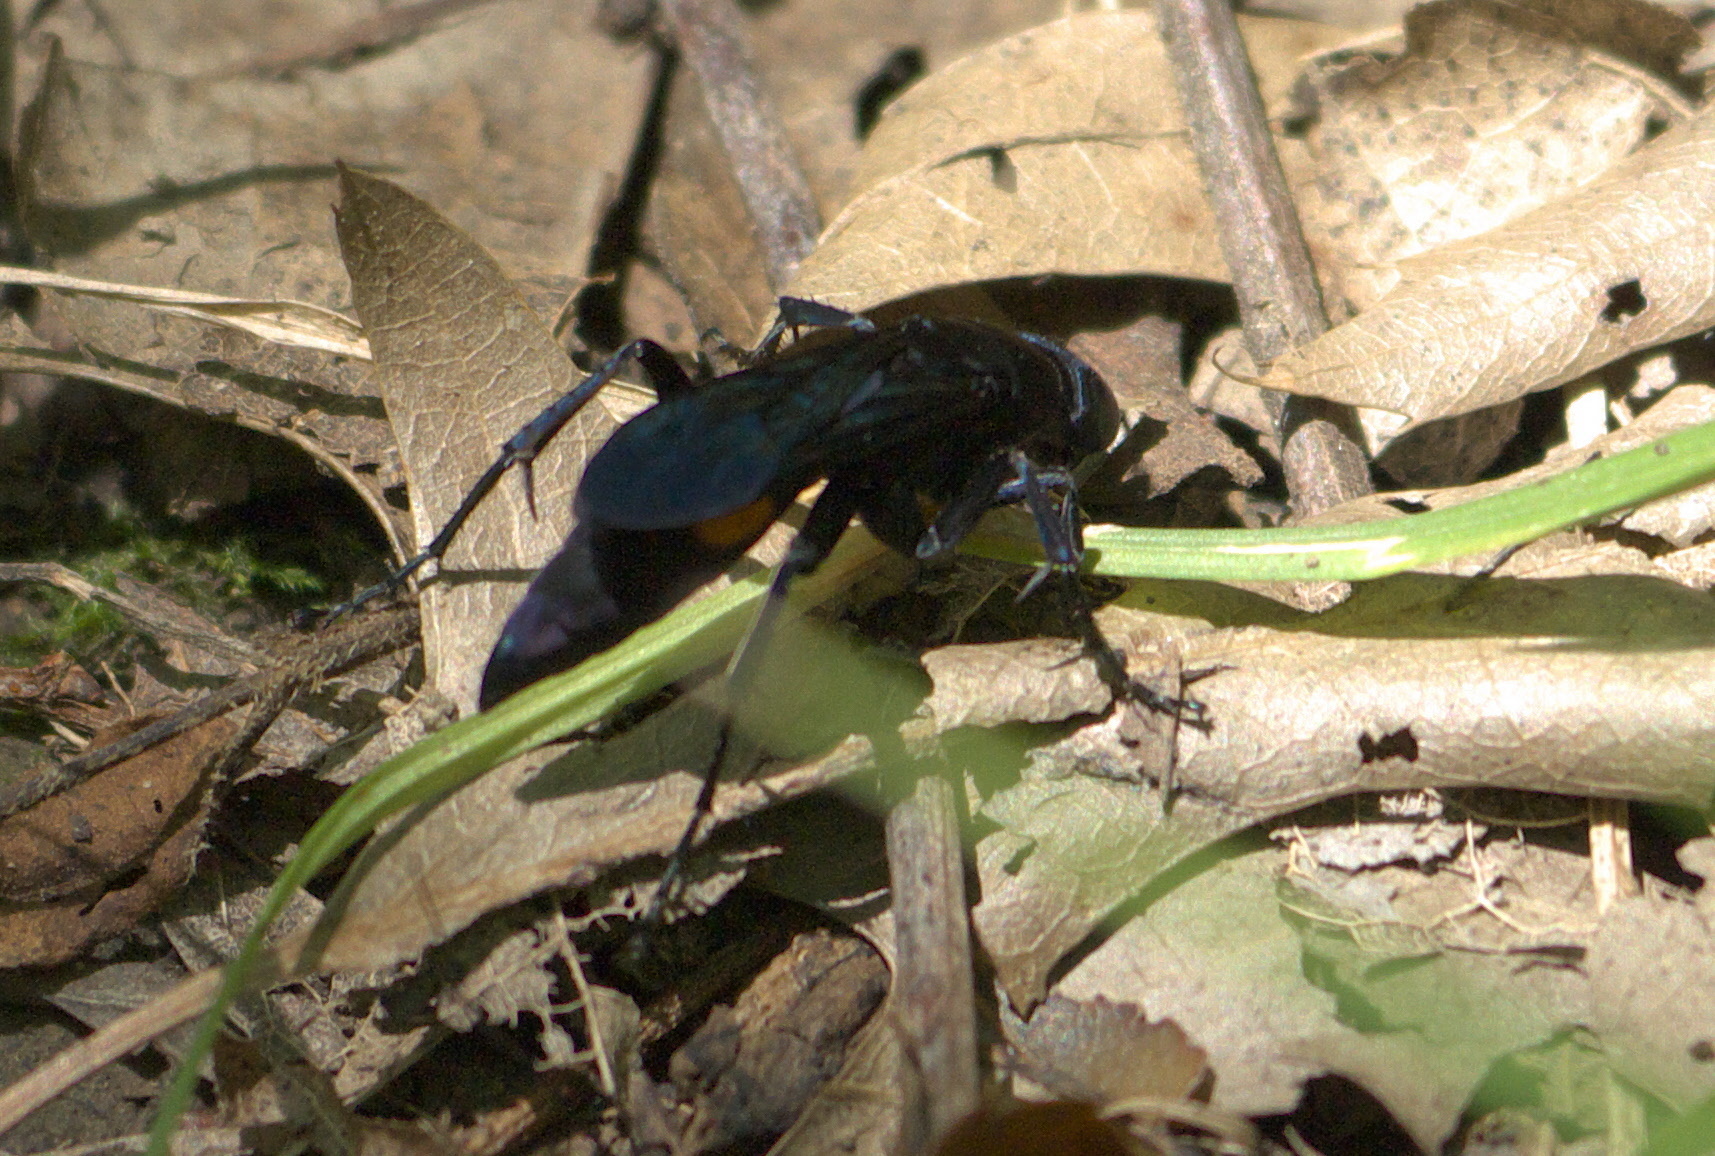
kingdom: Animalia
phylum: Arthropoda
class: Insecta
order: Hymenoptera
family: Pompilidae
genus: Psorthaspis
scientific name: Psorthaspis brimleyi
